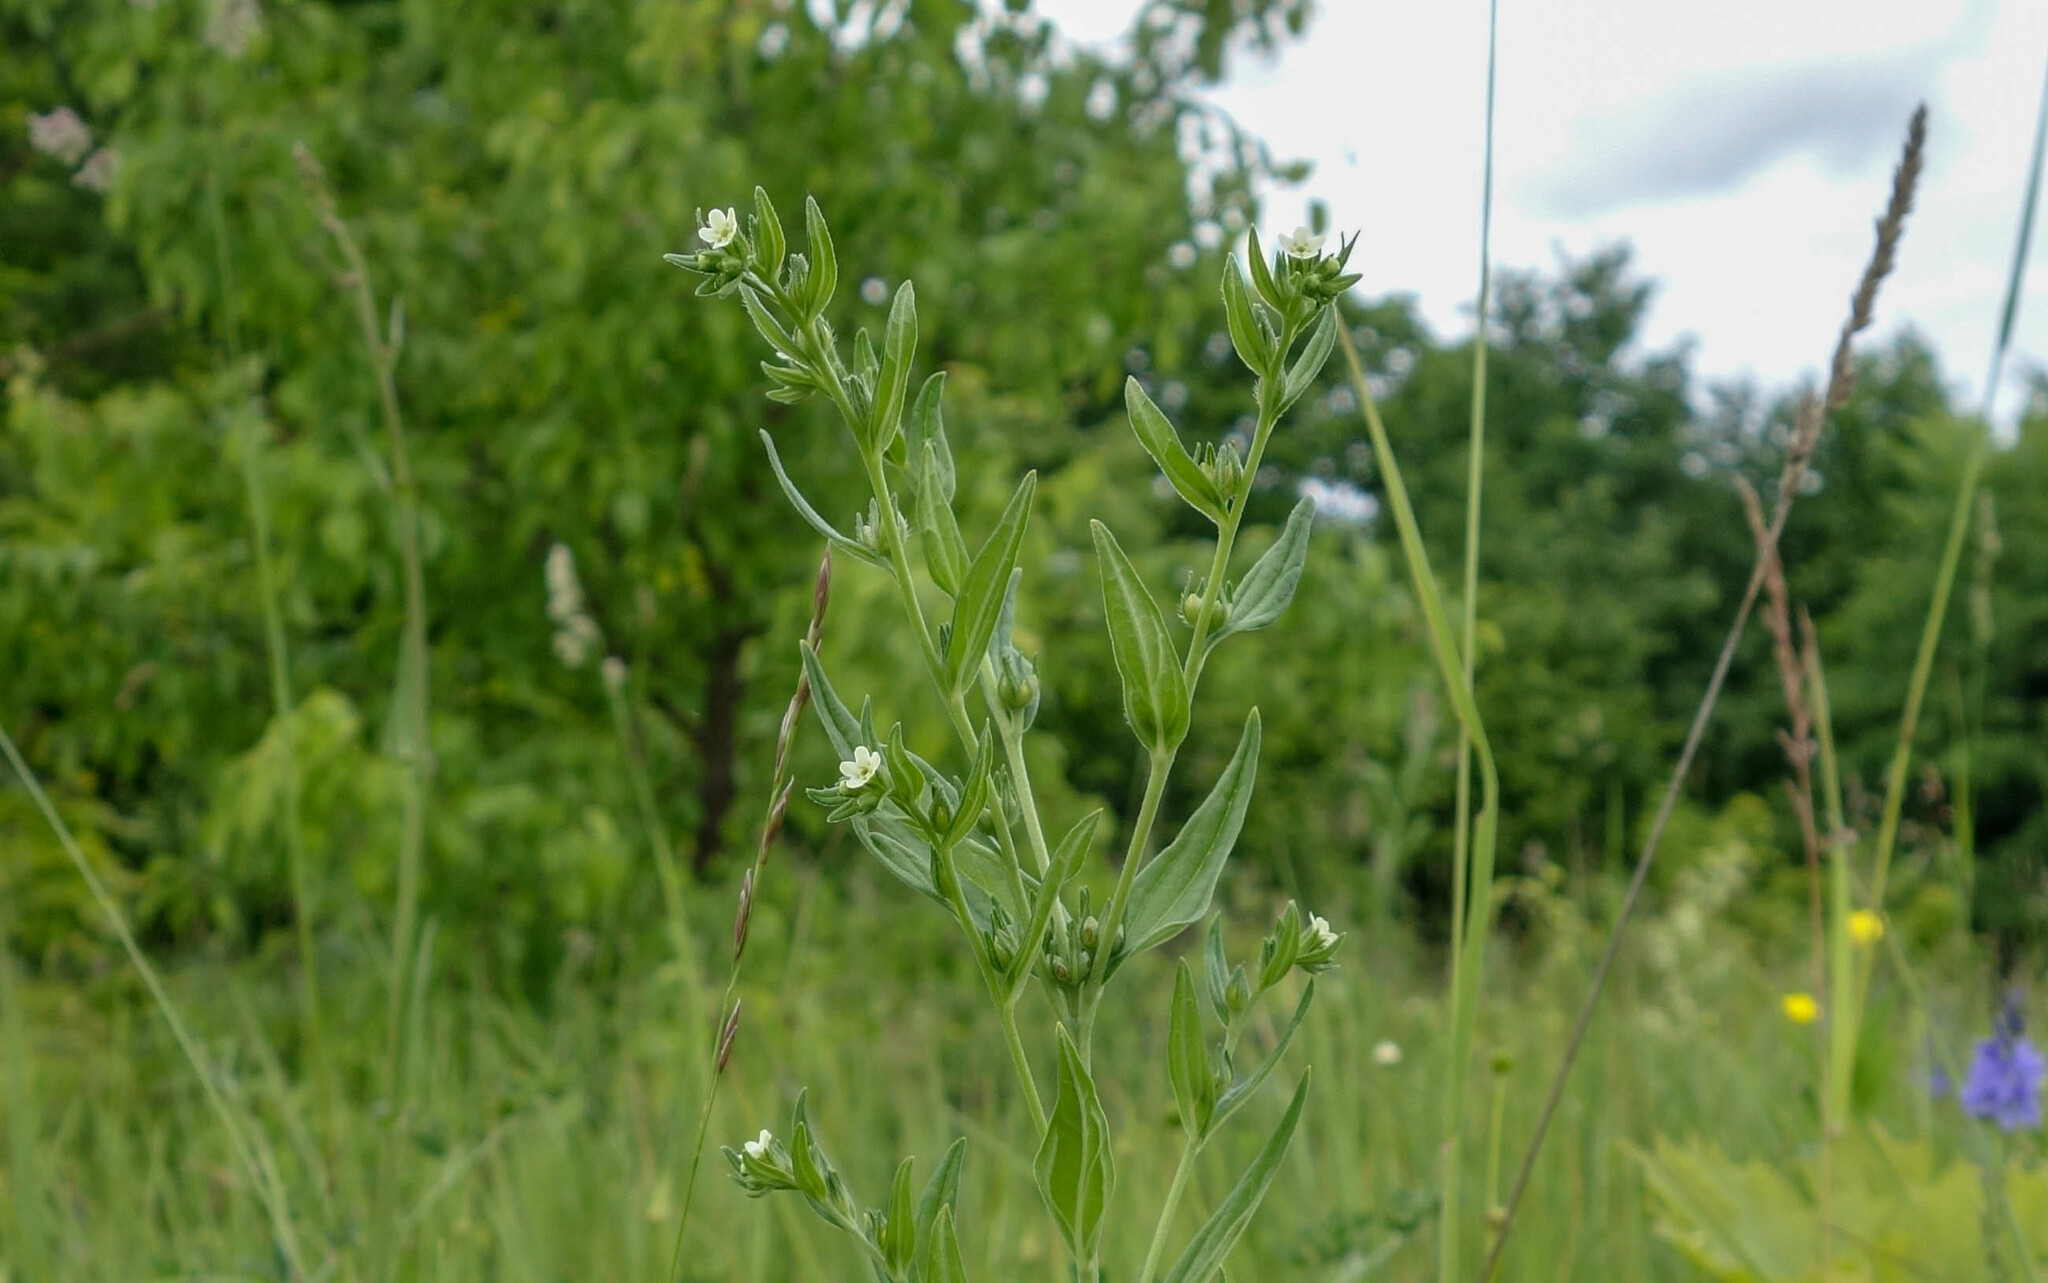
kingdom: Plantae
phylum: Tracheophyta
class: Magnoliopsida
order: Boraginales
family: Boraginaceae
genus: Buglossoides
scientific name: Buglossoides arvensis
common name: Corn gromwell
